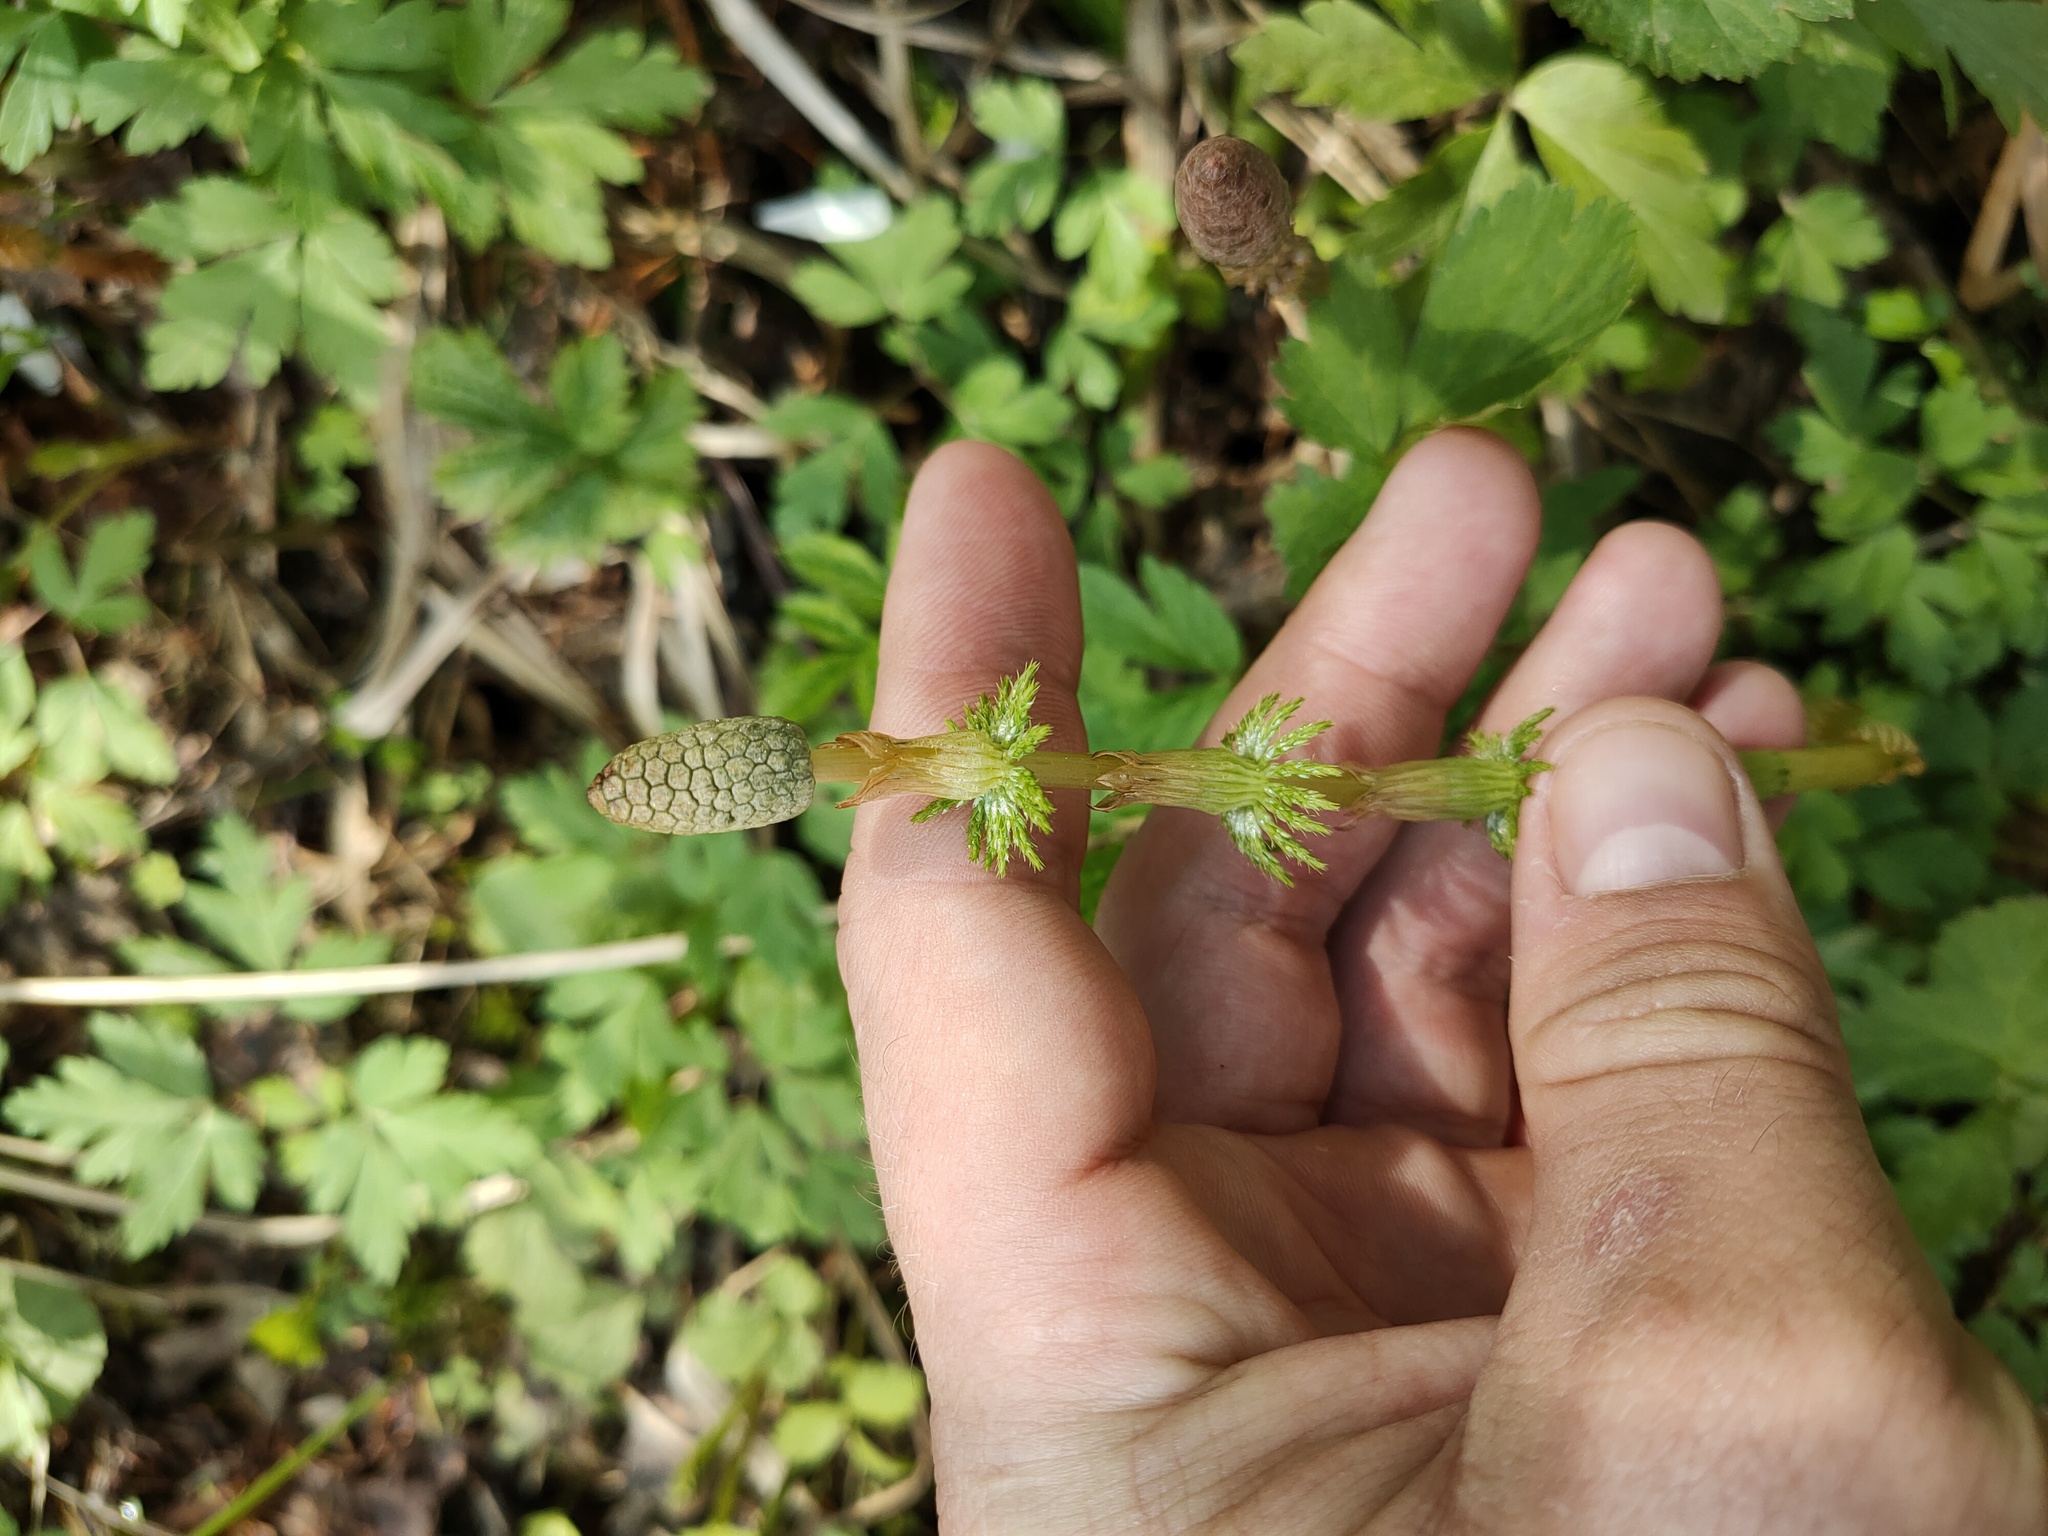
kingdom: Plantae
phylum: Tracheophyta
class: Polypodiopsida
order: Equisetales
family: Equisetaceae
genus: Equisetum
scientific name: Equisetum sylvaticum
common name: Wood horsetail
